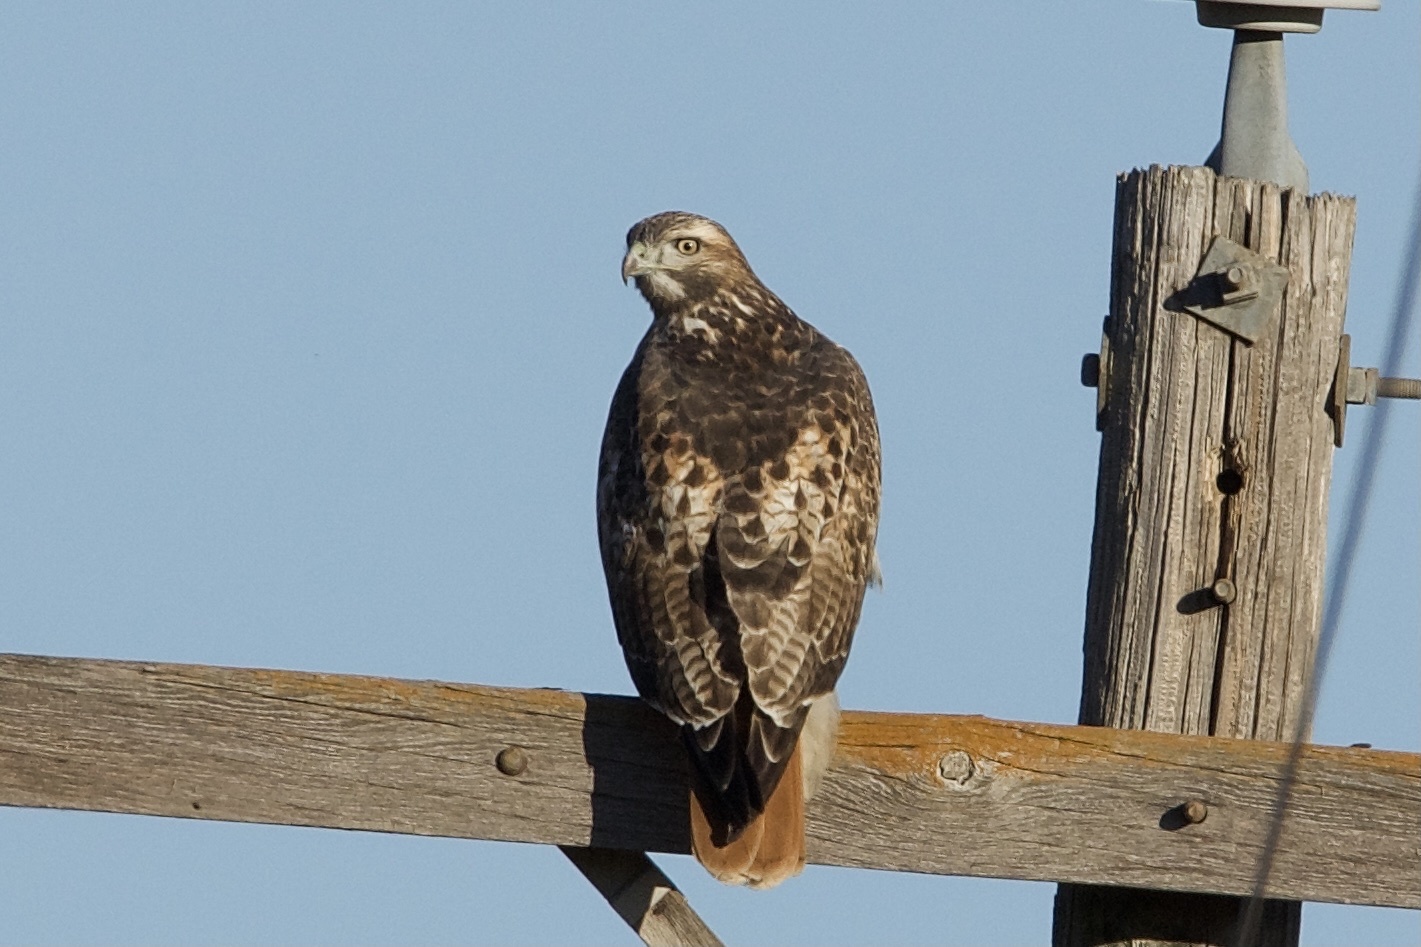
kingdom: Animalia
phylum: Chordata
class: Aves
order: Accipitriformes
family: Accipitridae
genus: Buteo
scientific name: Buteo jamaicensis
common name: Red-tailed hawk
